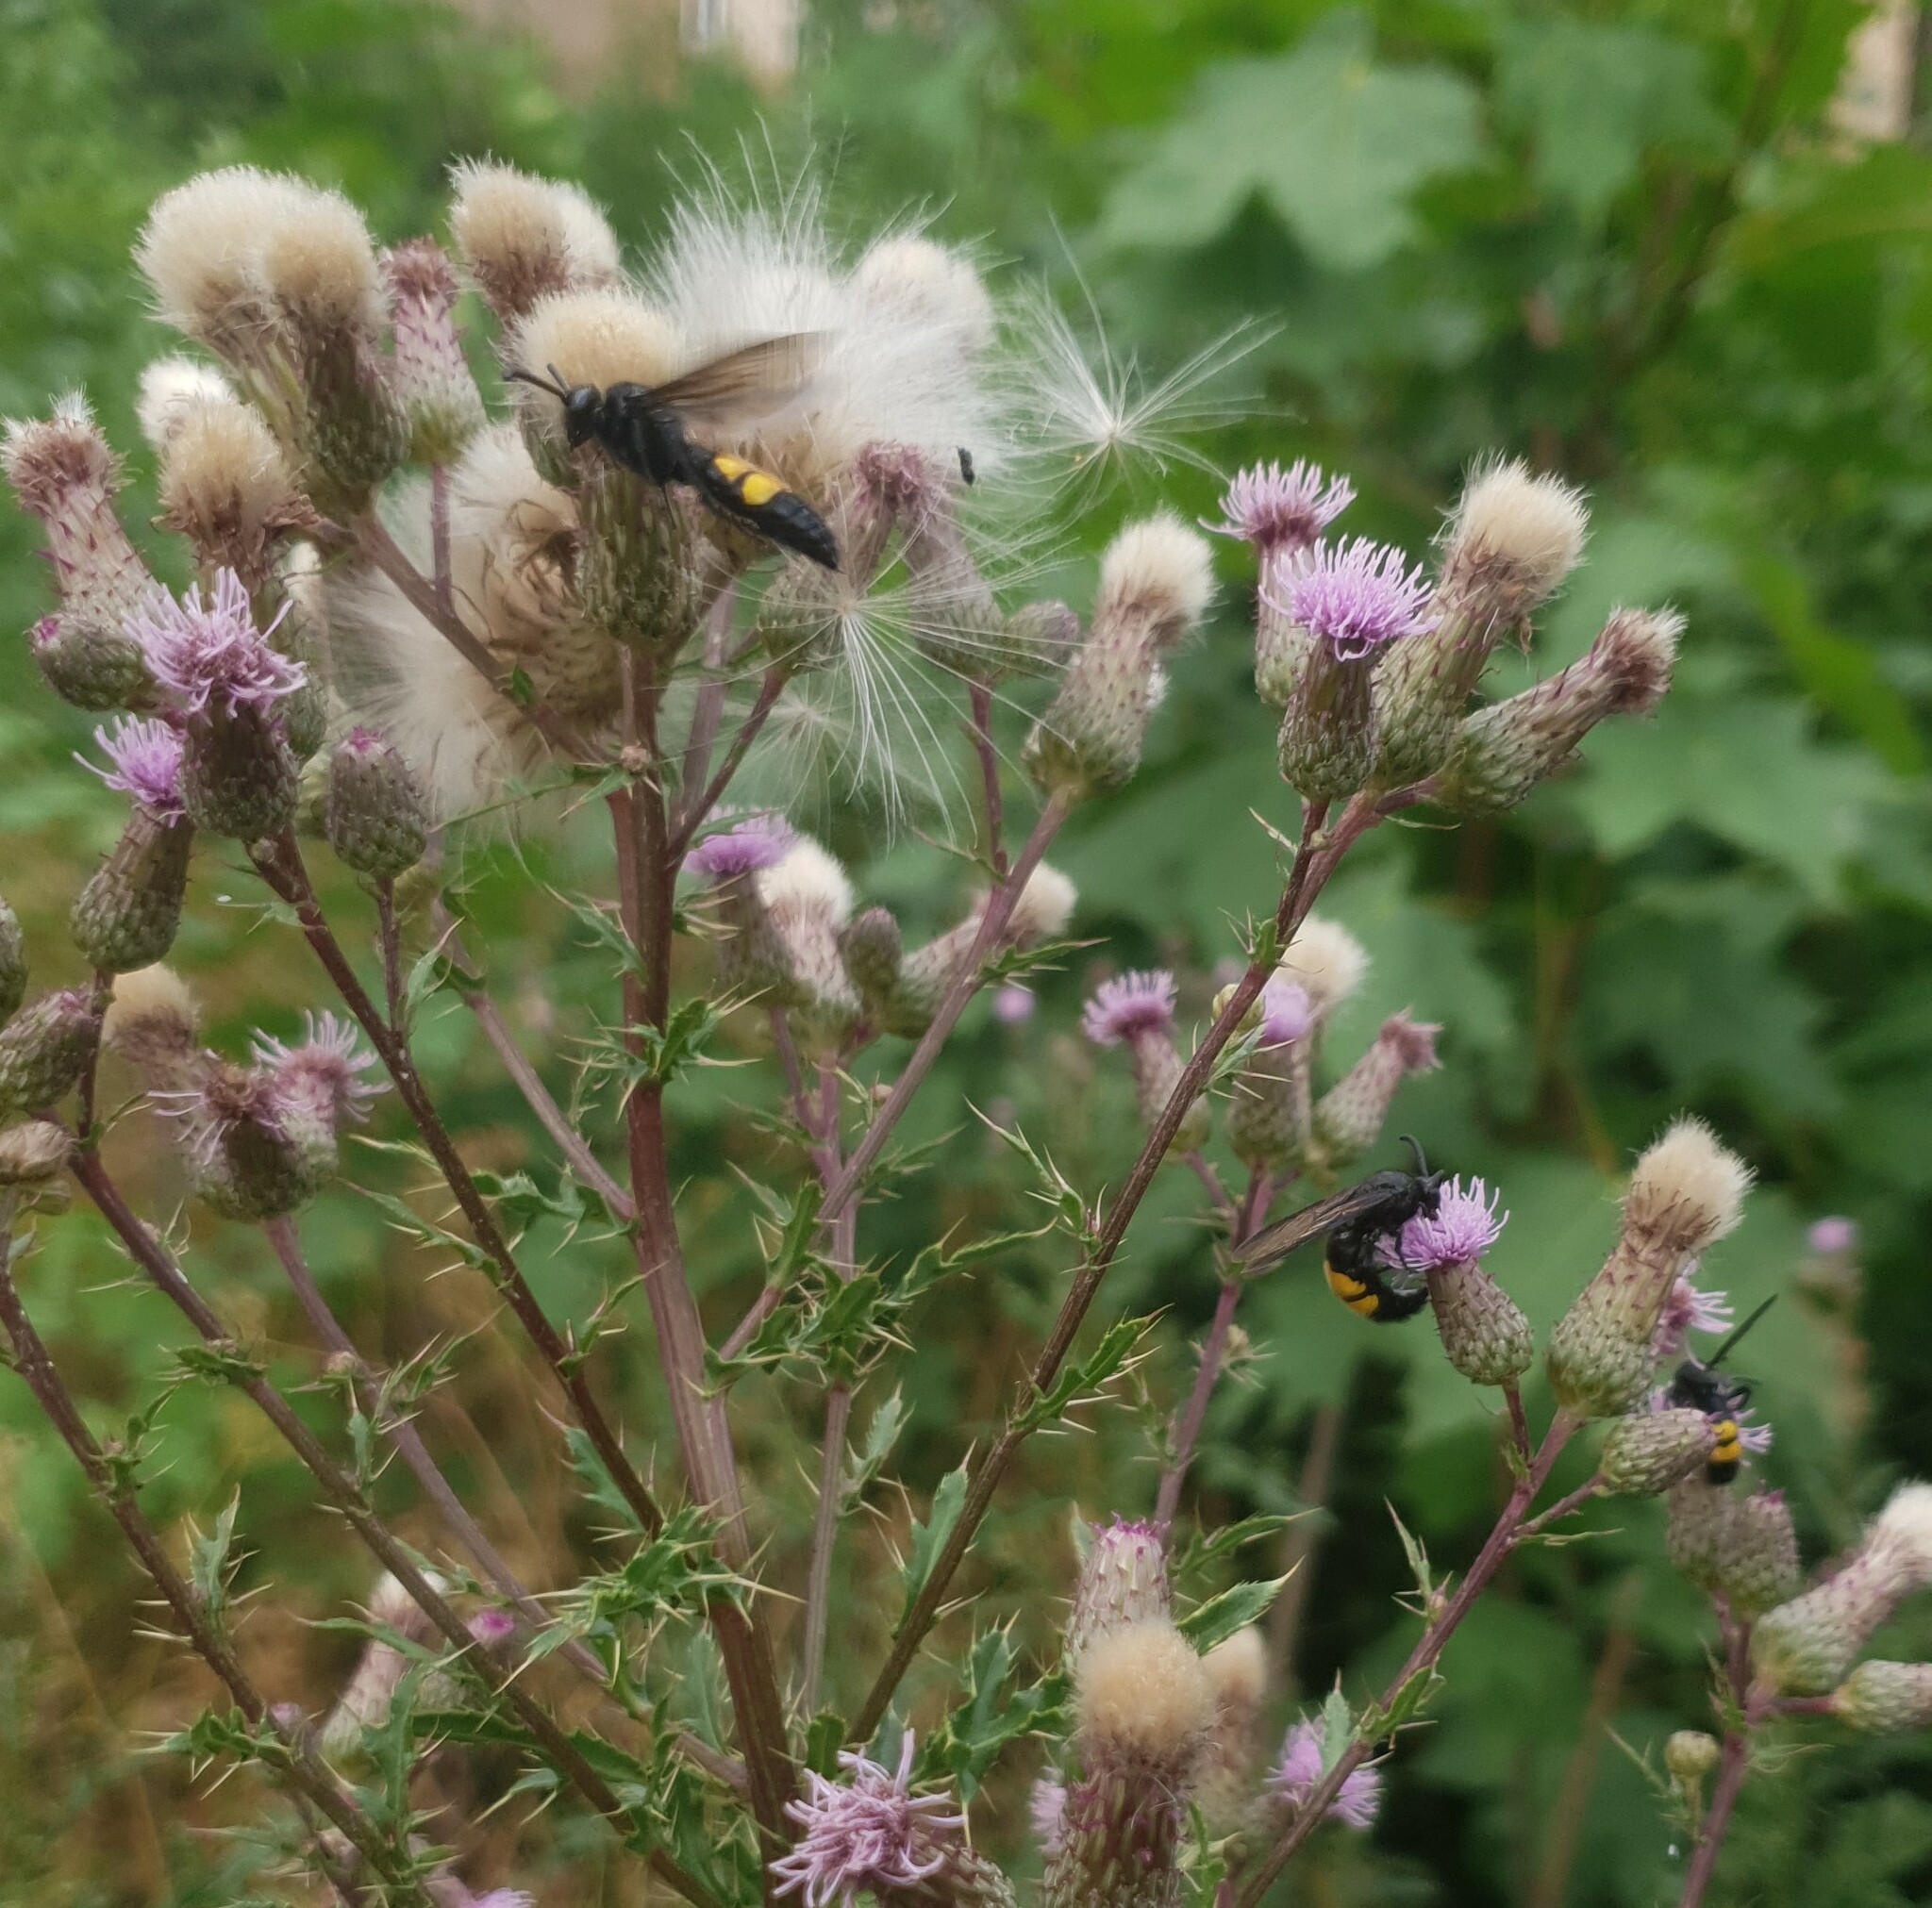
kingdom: Animalia
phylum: Arthropoda
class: Insecta
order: Hymenoptera
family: Scoliidae
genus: Scolia
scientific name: Scolia hirta
